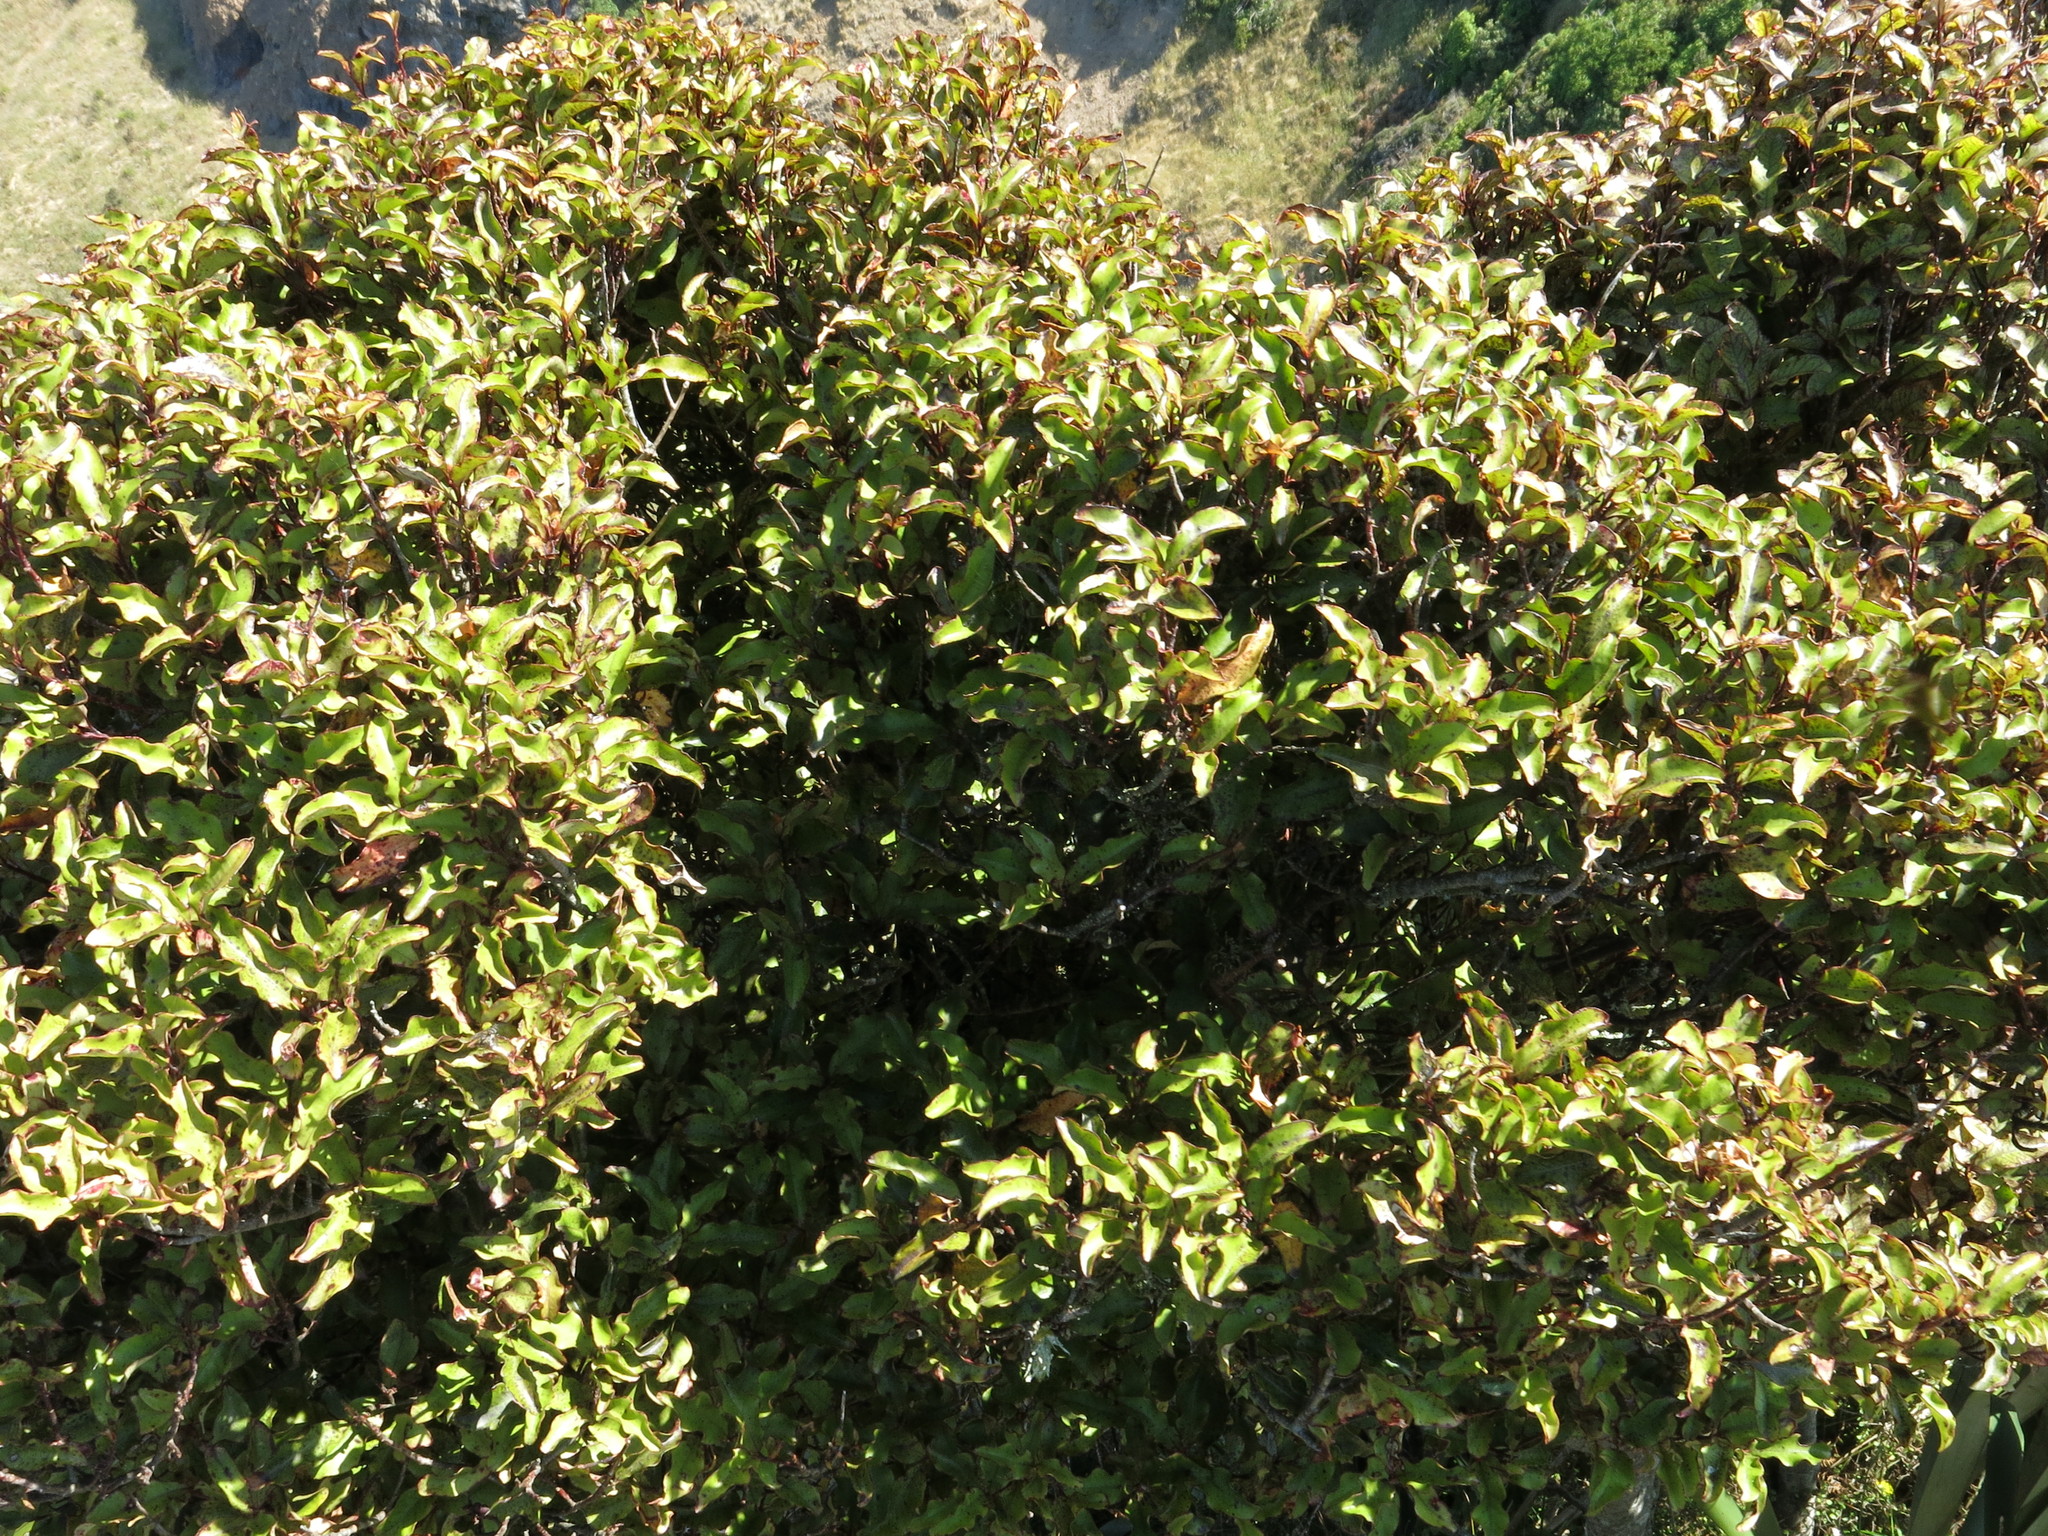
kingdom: Plantae
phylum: Tracheophyta
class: Magnoliopsida
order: Ericales
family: Primulaceae
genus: Myrsine
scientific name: Myrsine australis
